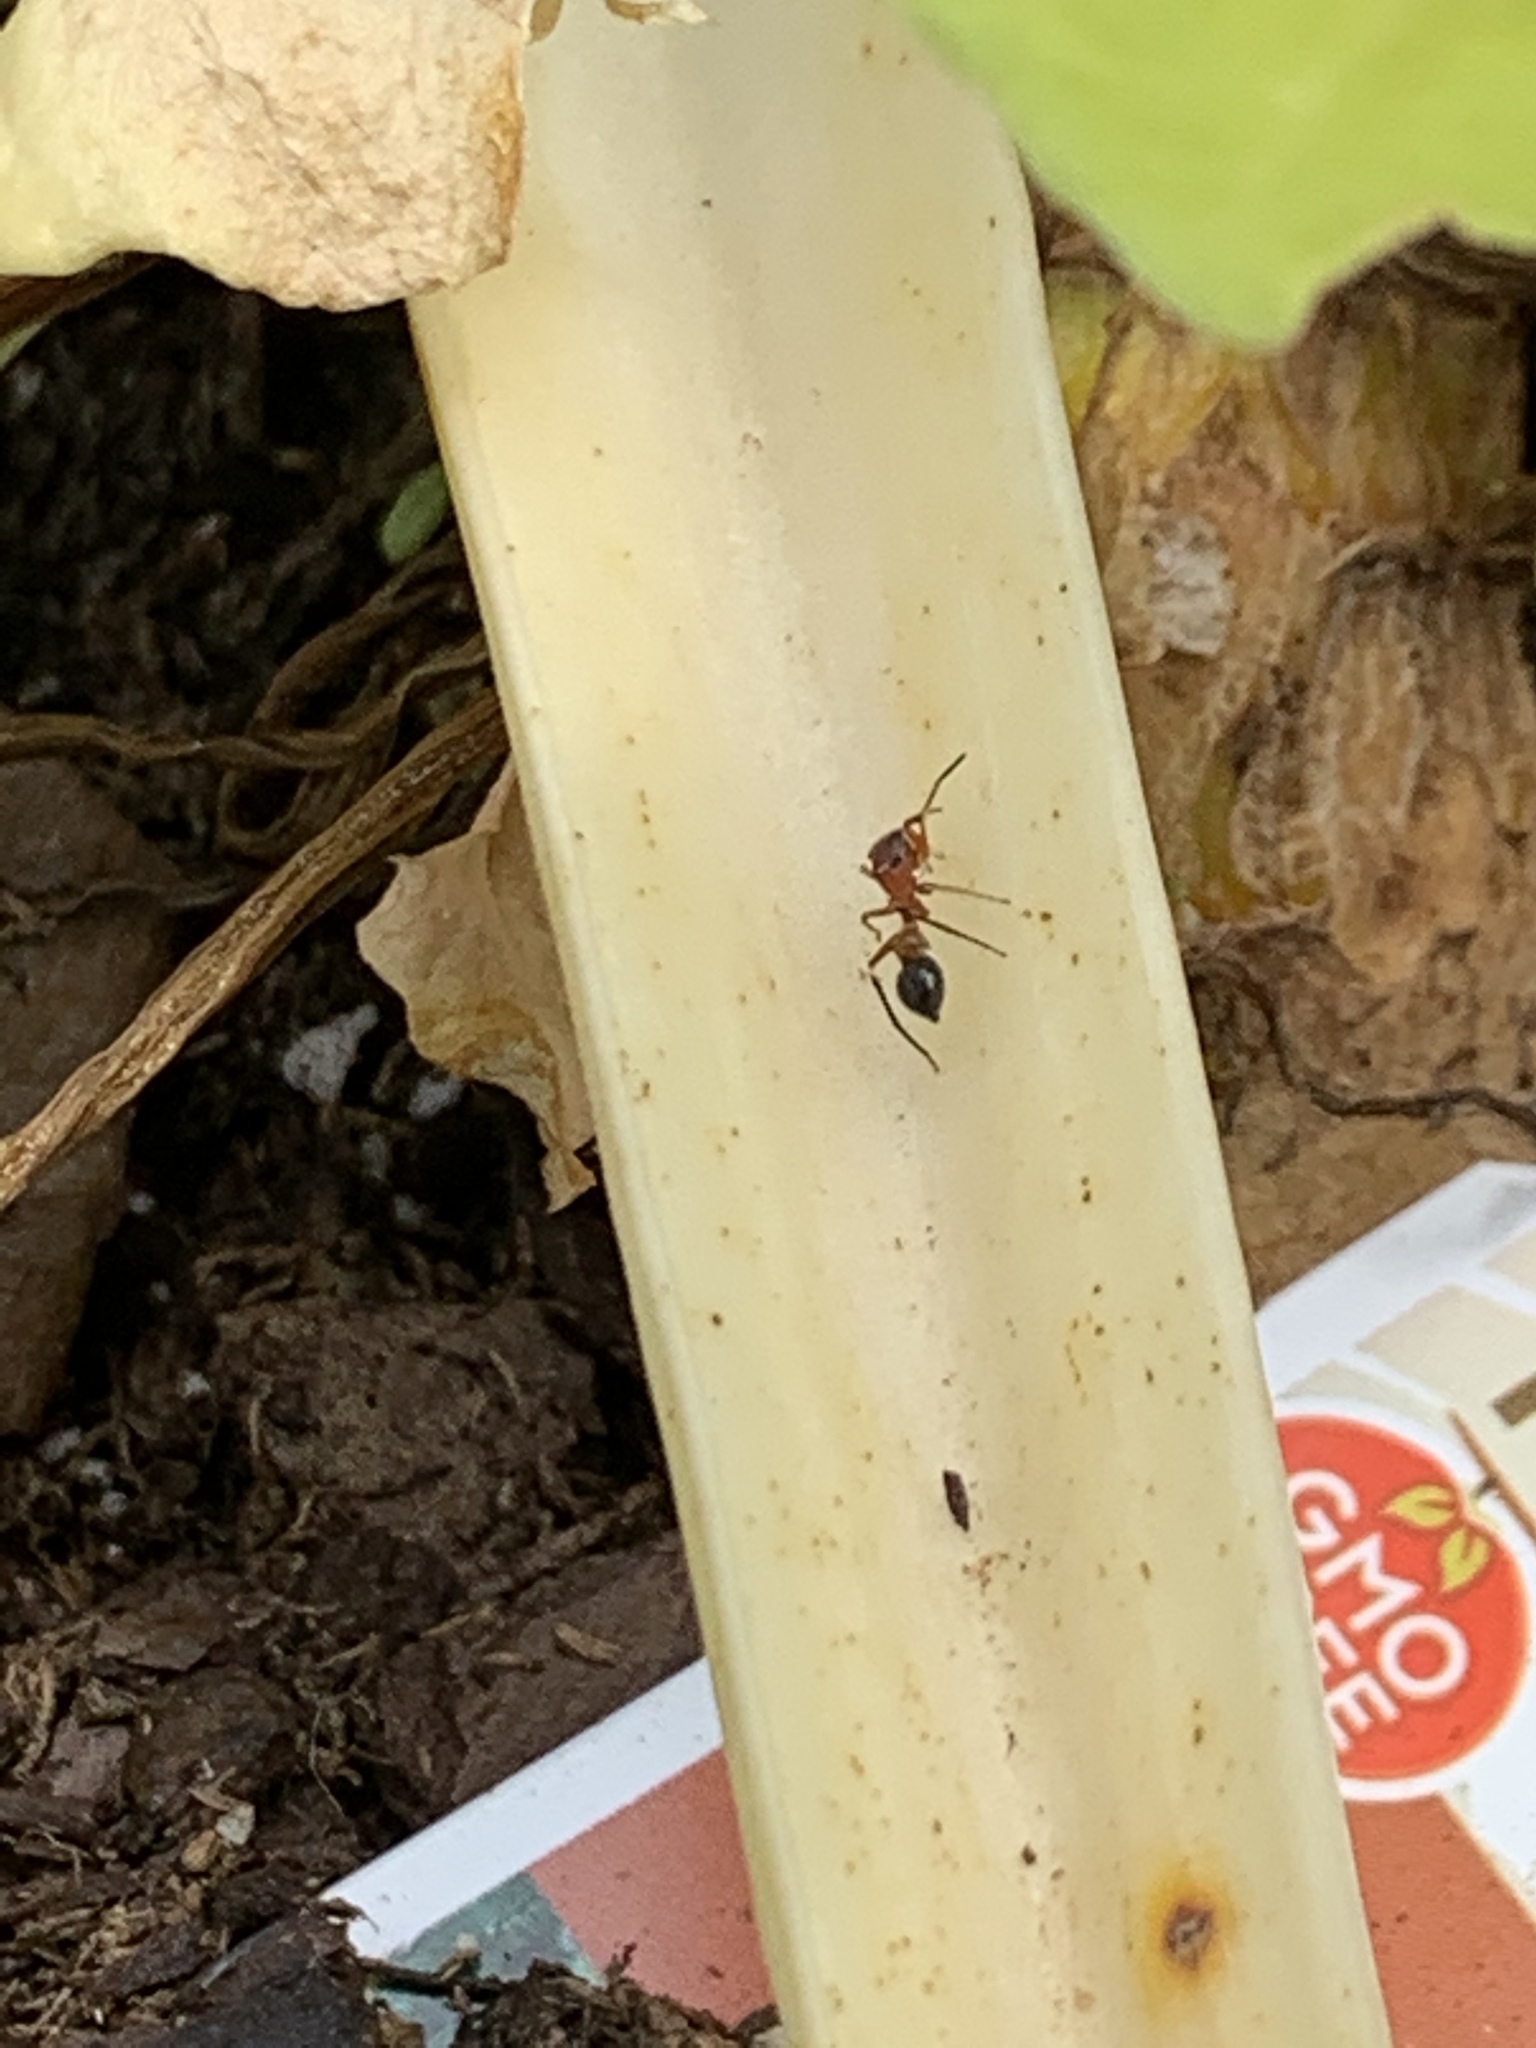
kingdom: Animalia
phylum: Arthropoda
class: Arachnida
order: Araneae
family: Salticidae
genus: Peckhamia
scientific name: Peckhamia
